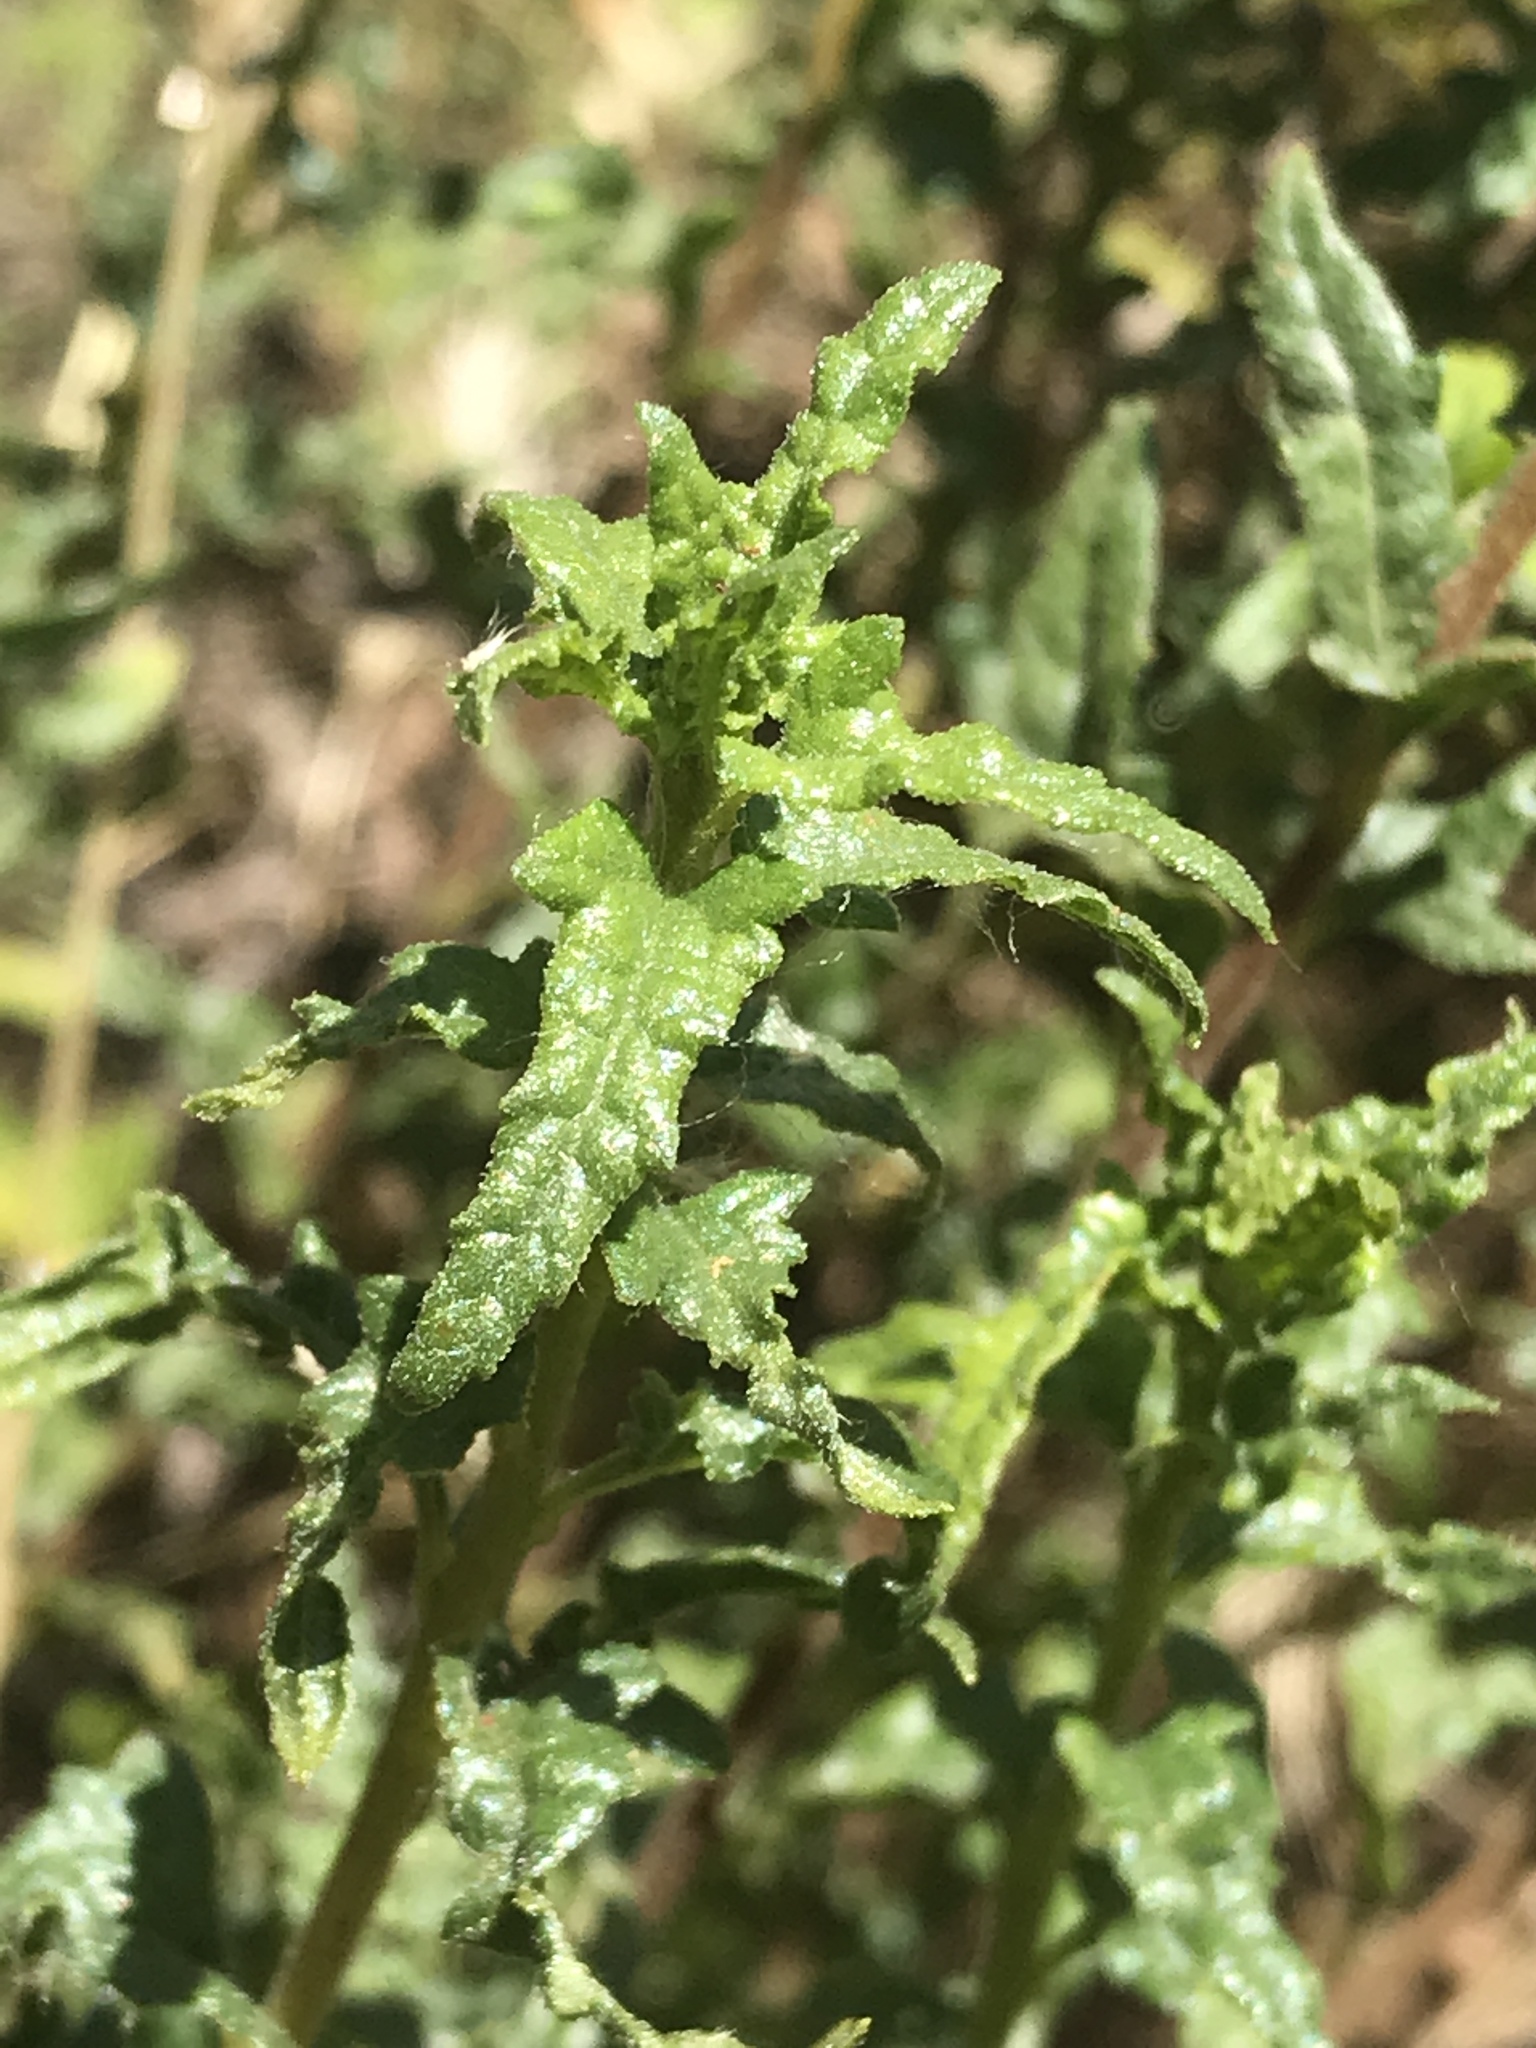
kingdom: Plantae
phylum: Tracheophyta
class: Magnoliopsida
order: Asterales
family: Asteraceae
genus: Bahiopsis
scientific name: Bahiopsis laciniata
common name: San diego county viguiera
